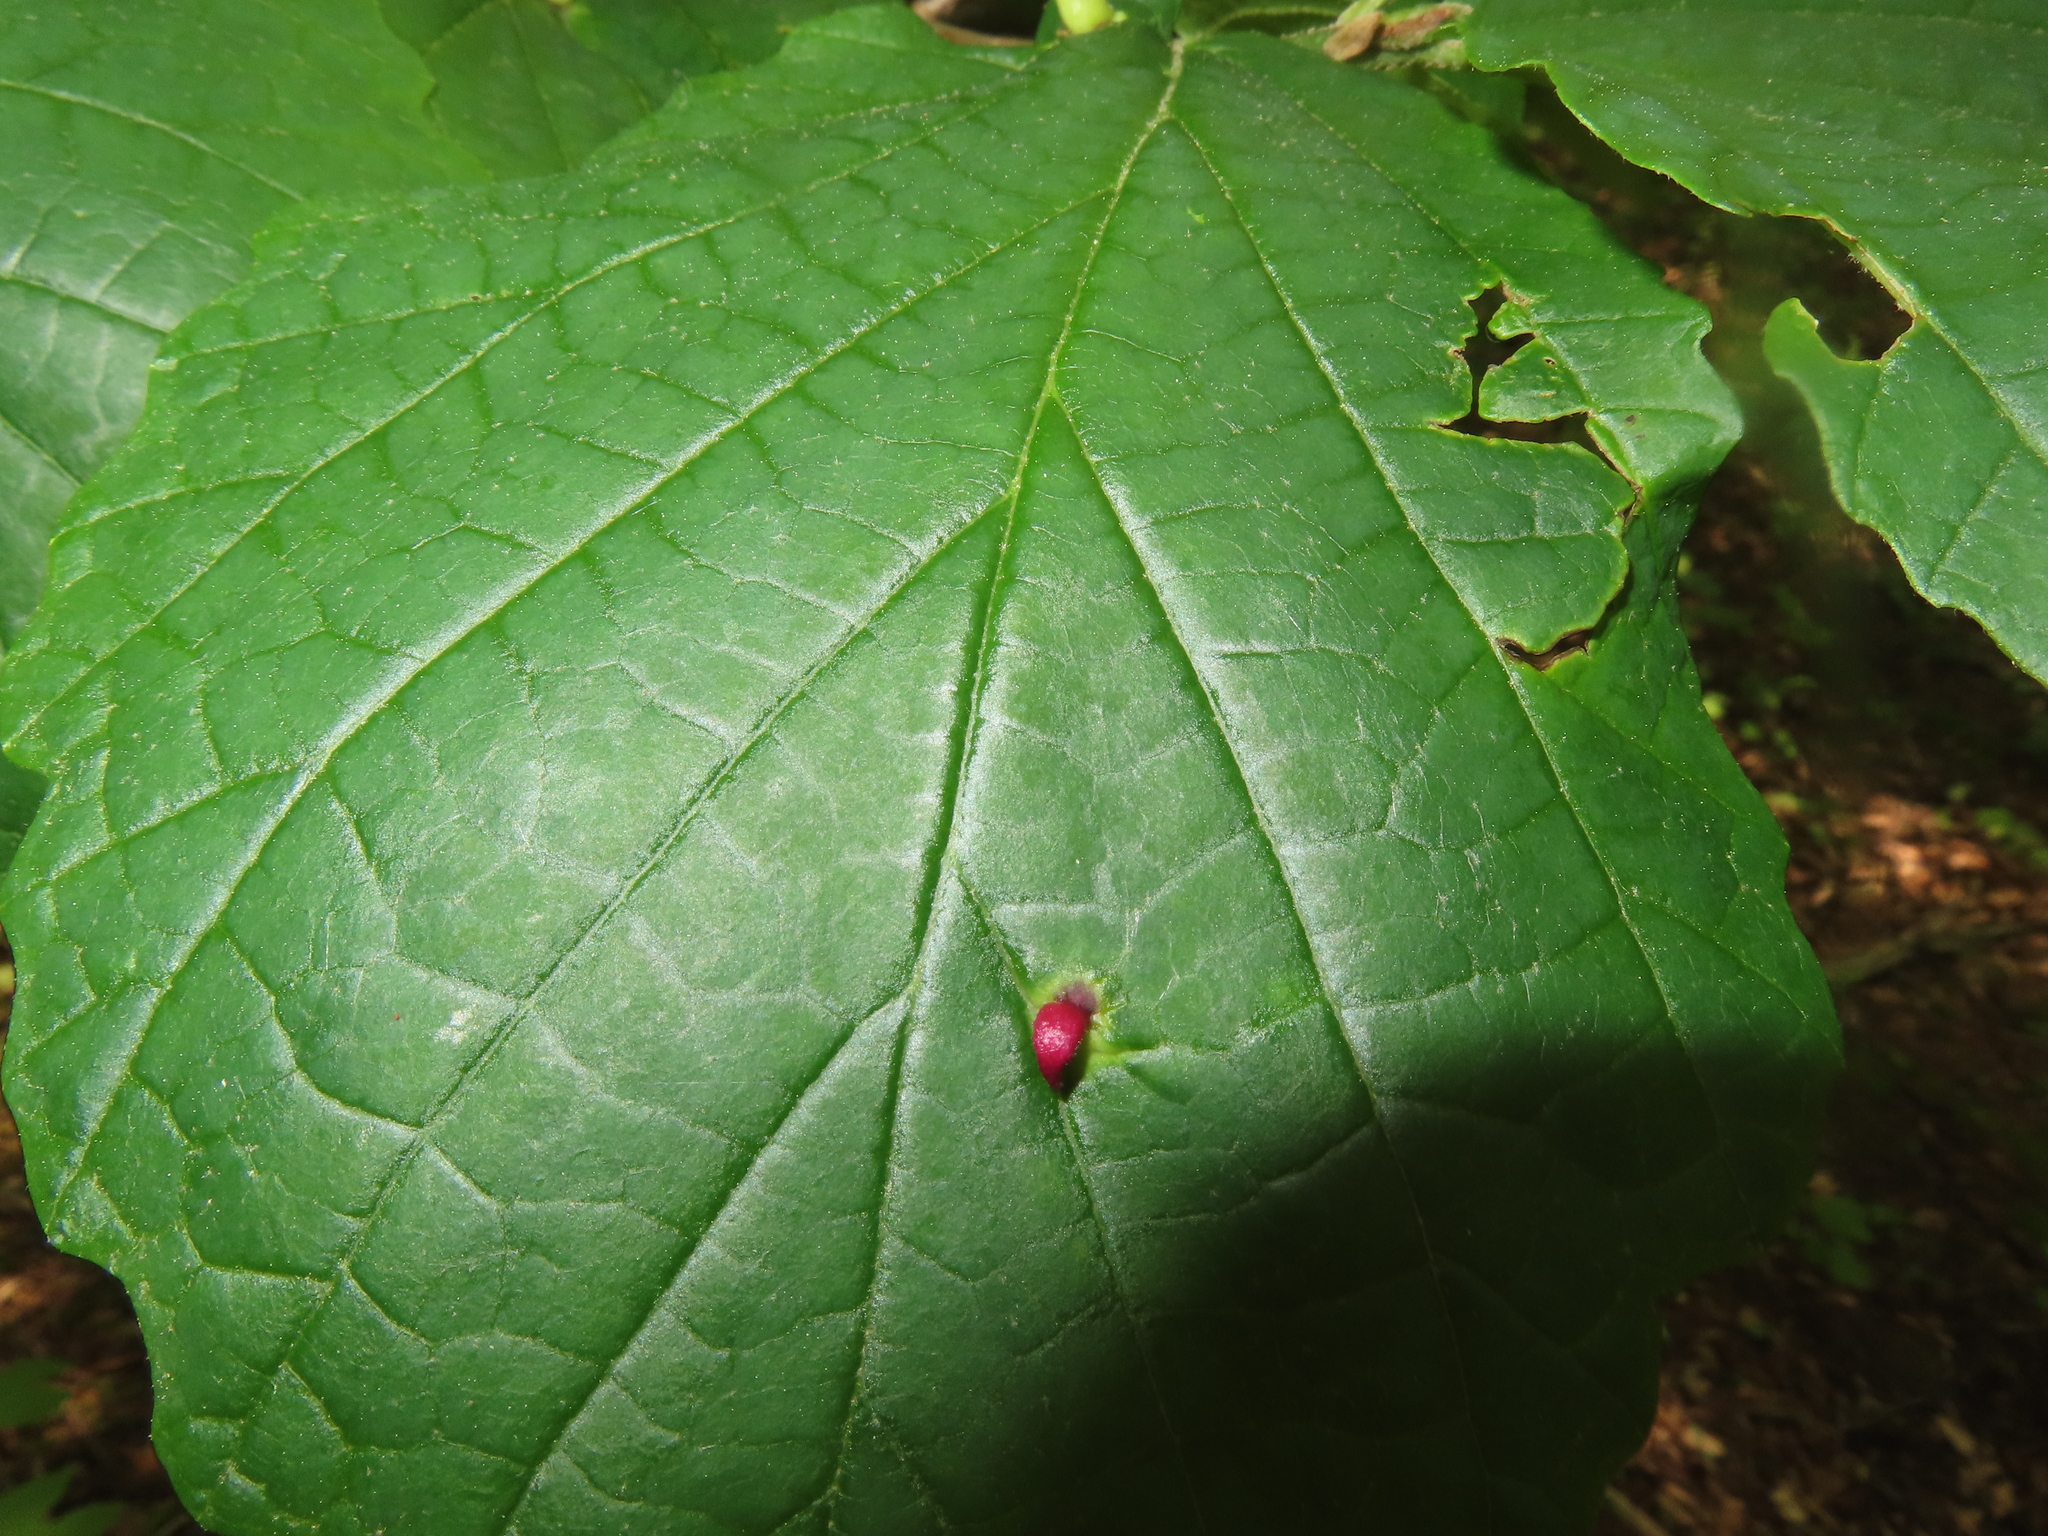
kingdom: Animalia
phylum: Arthropoda
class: Insecta
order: Hemiptera
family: Aphididae
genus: Hormaphis
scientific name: Hormaphis hamamelidis
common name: Witch-hazel cone gall aphid
